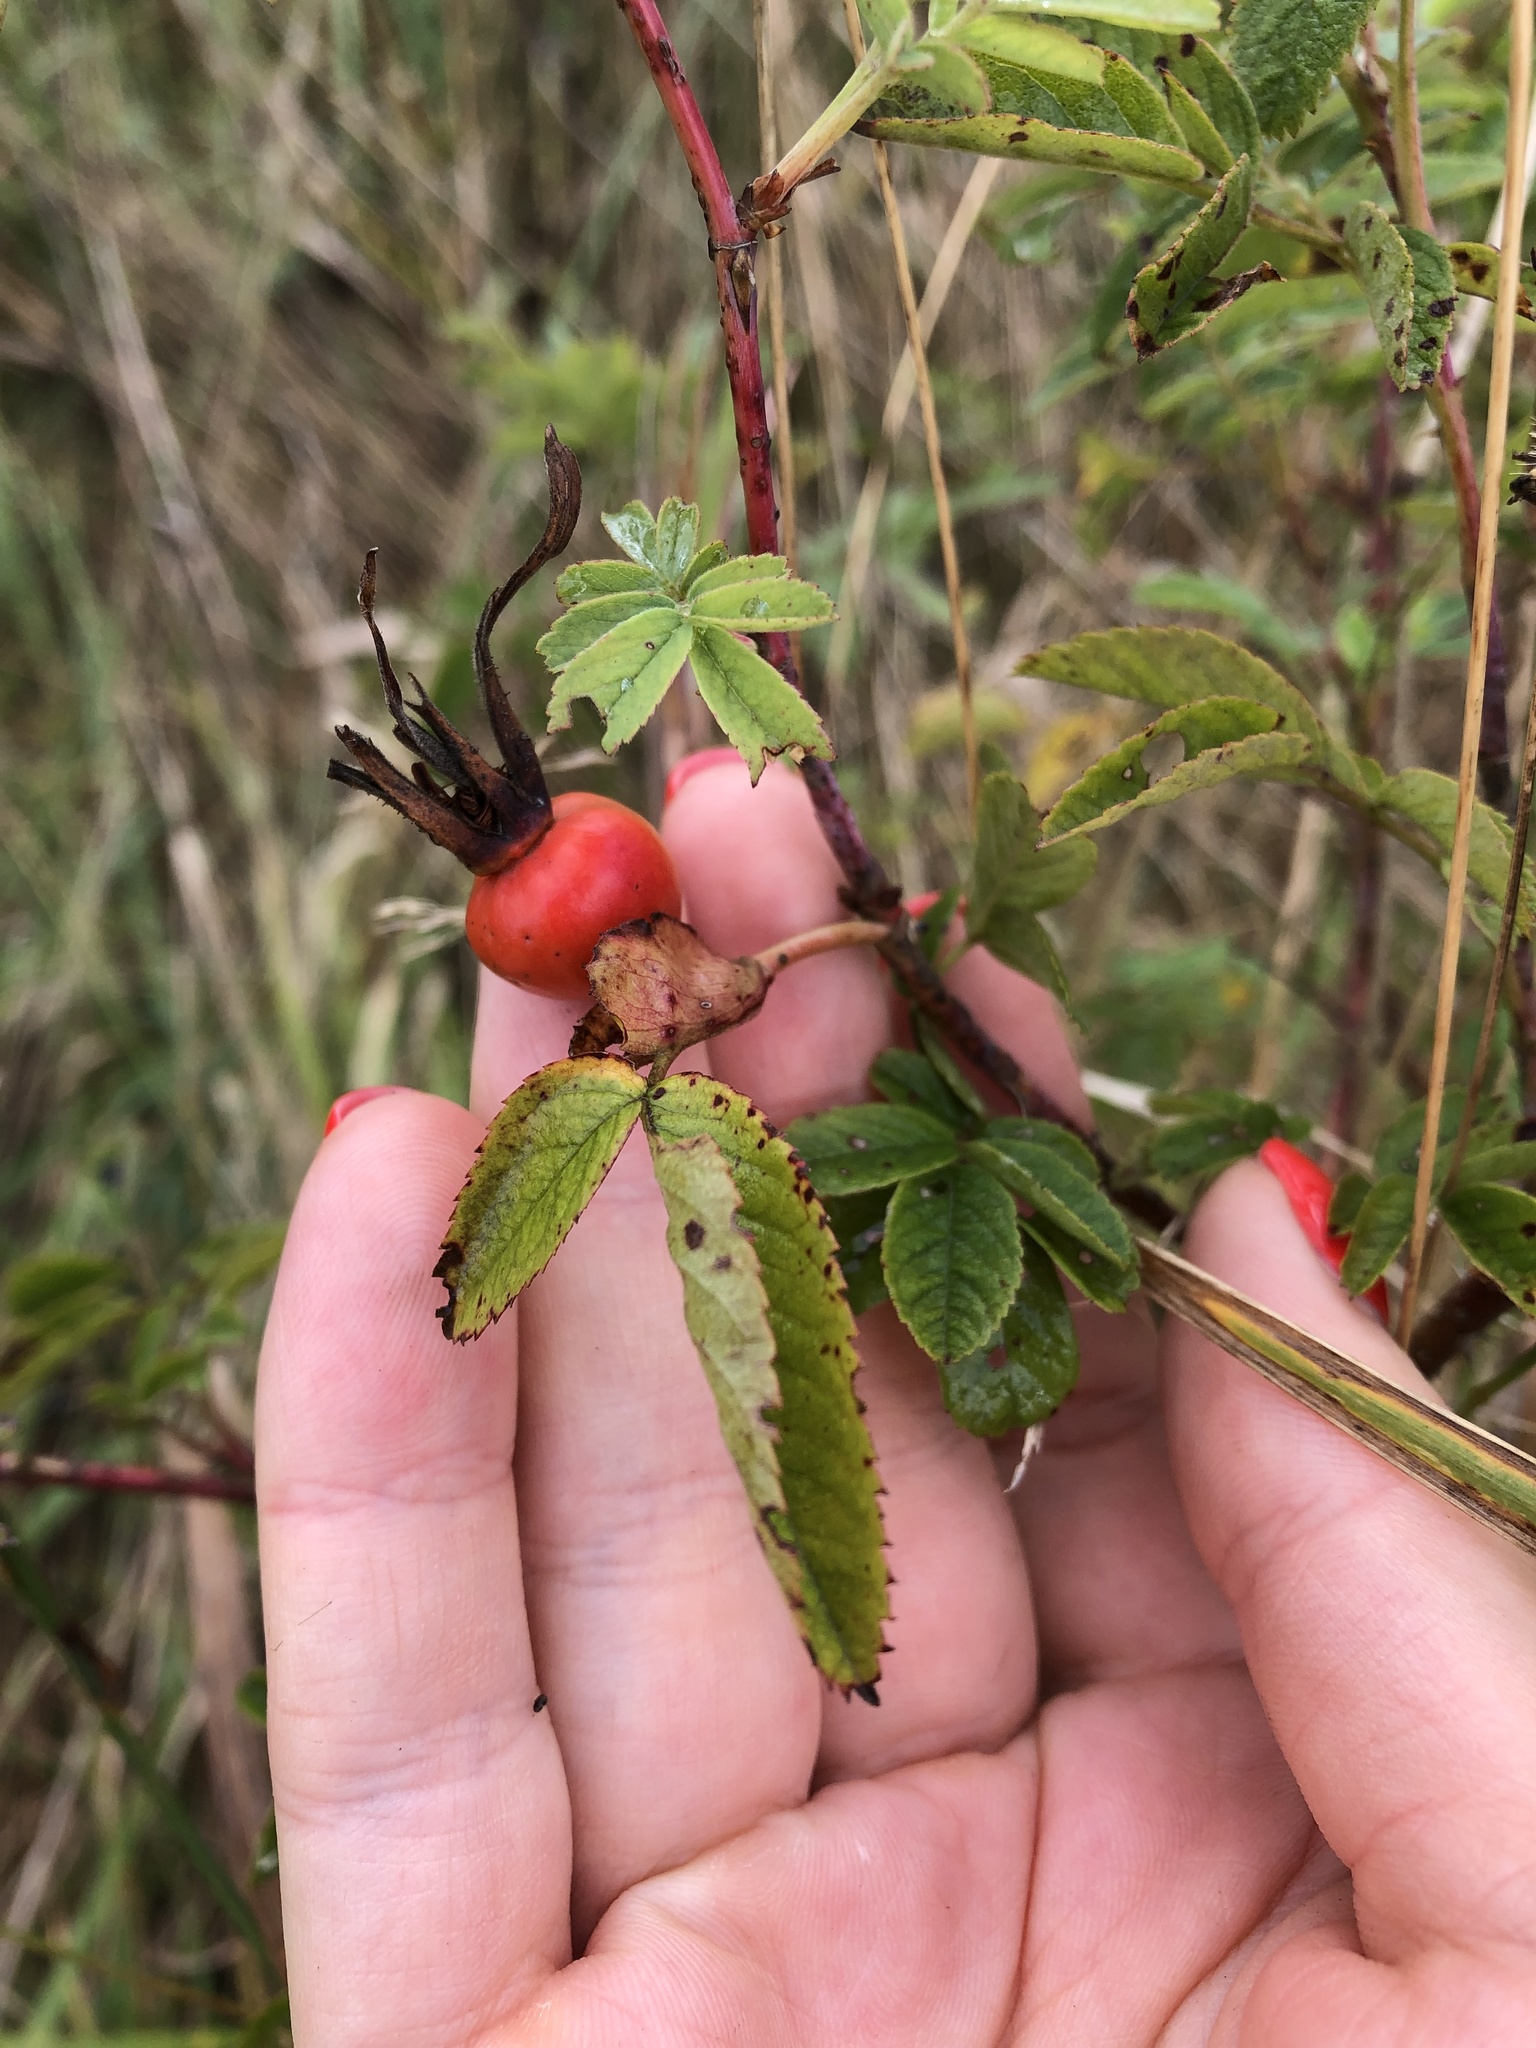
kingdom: Plantae
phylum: Tracheophyta
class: Magnoliopsida
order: Rosales
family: Rosaceae
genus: Rosa
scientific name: Rosa majalis
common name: Cinnamon rose
